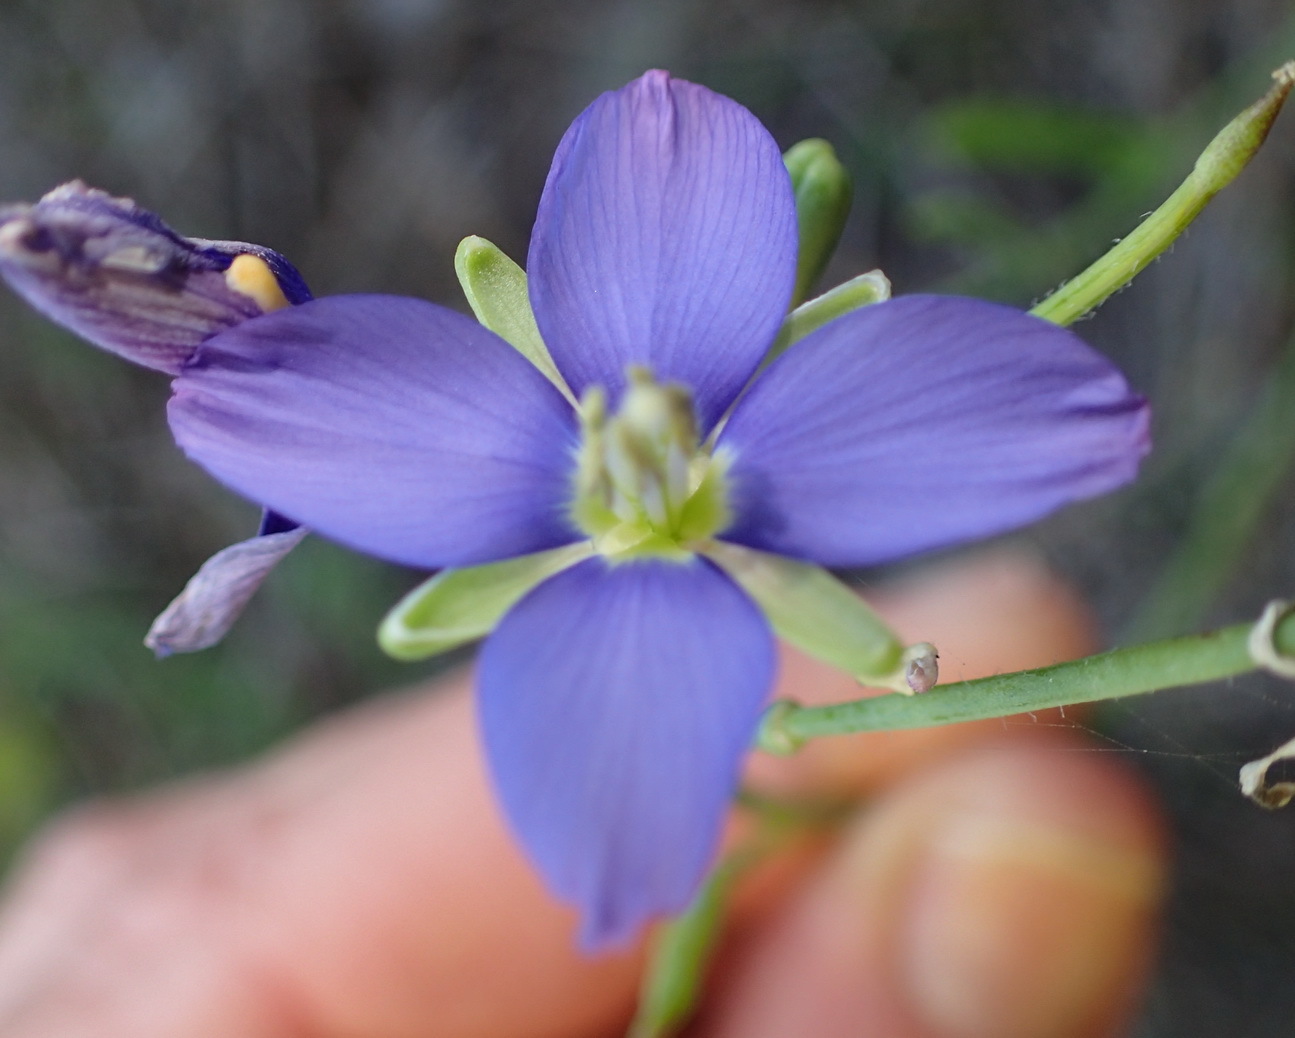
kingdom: Plantae
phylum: Tracheophyta
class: Magnoliopsida
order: Brassicales
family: Brassicaceae
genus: Heliophila
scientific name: Heliophila linearis
